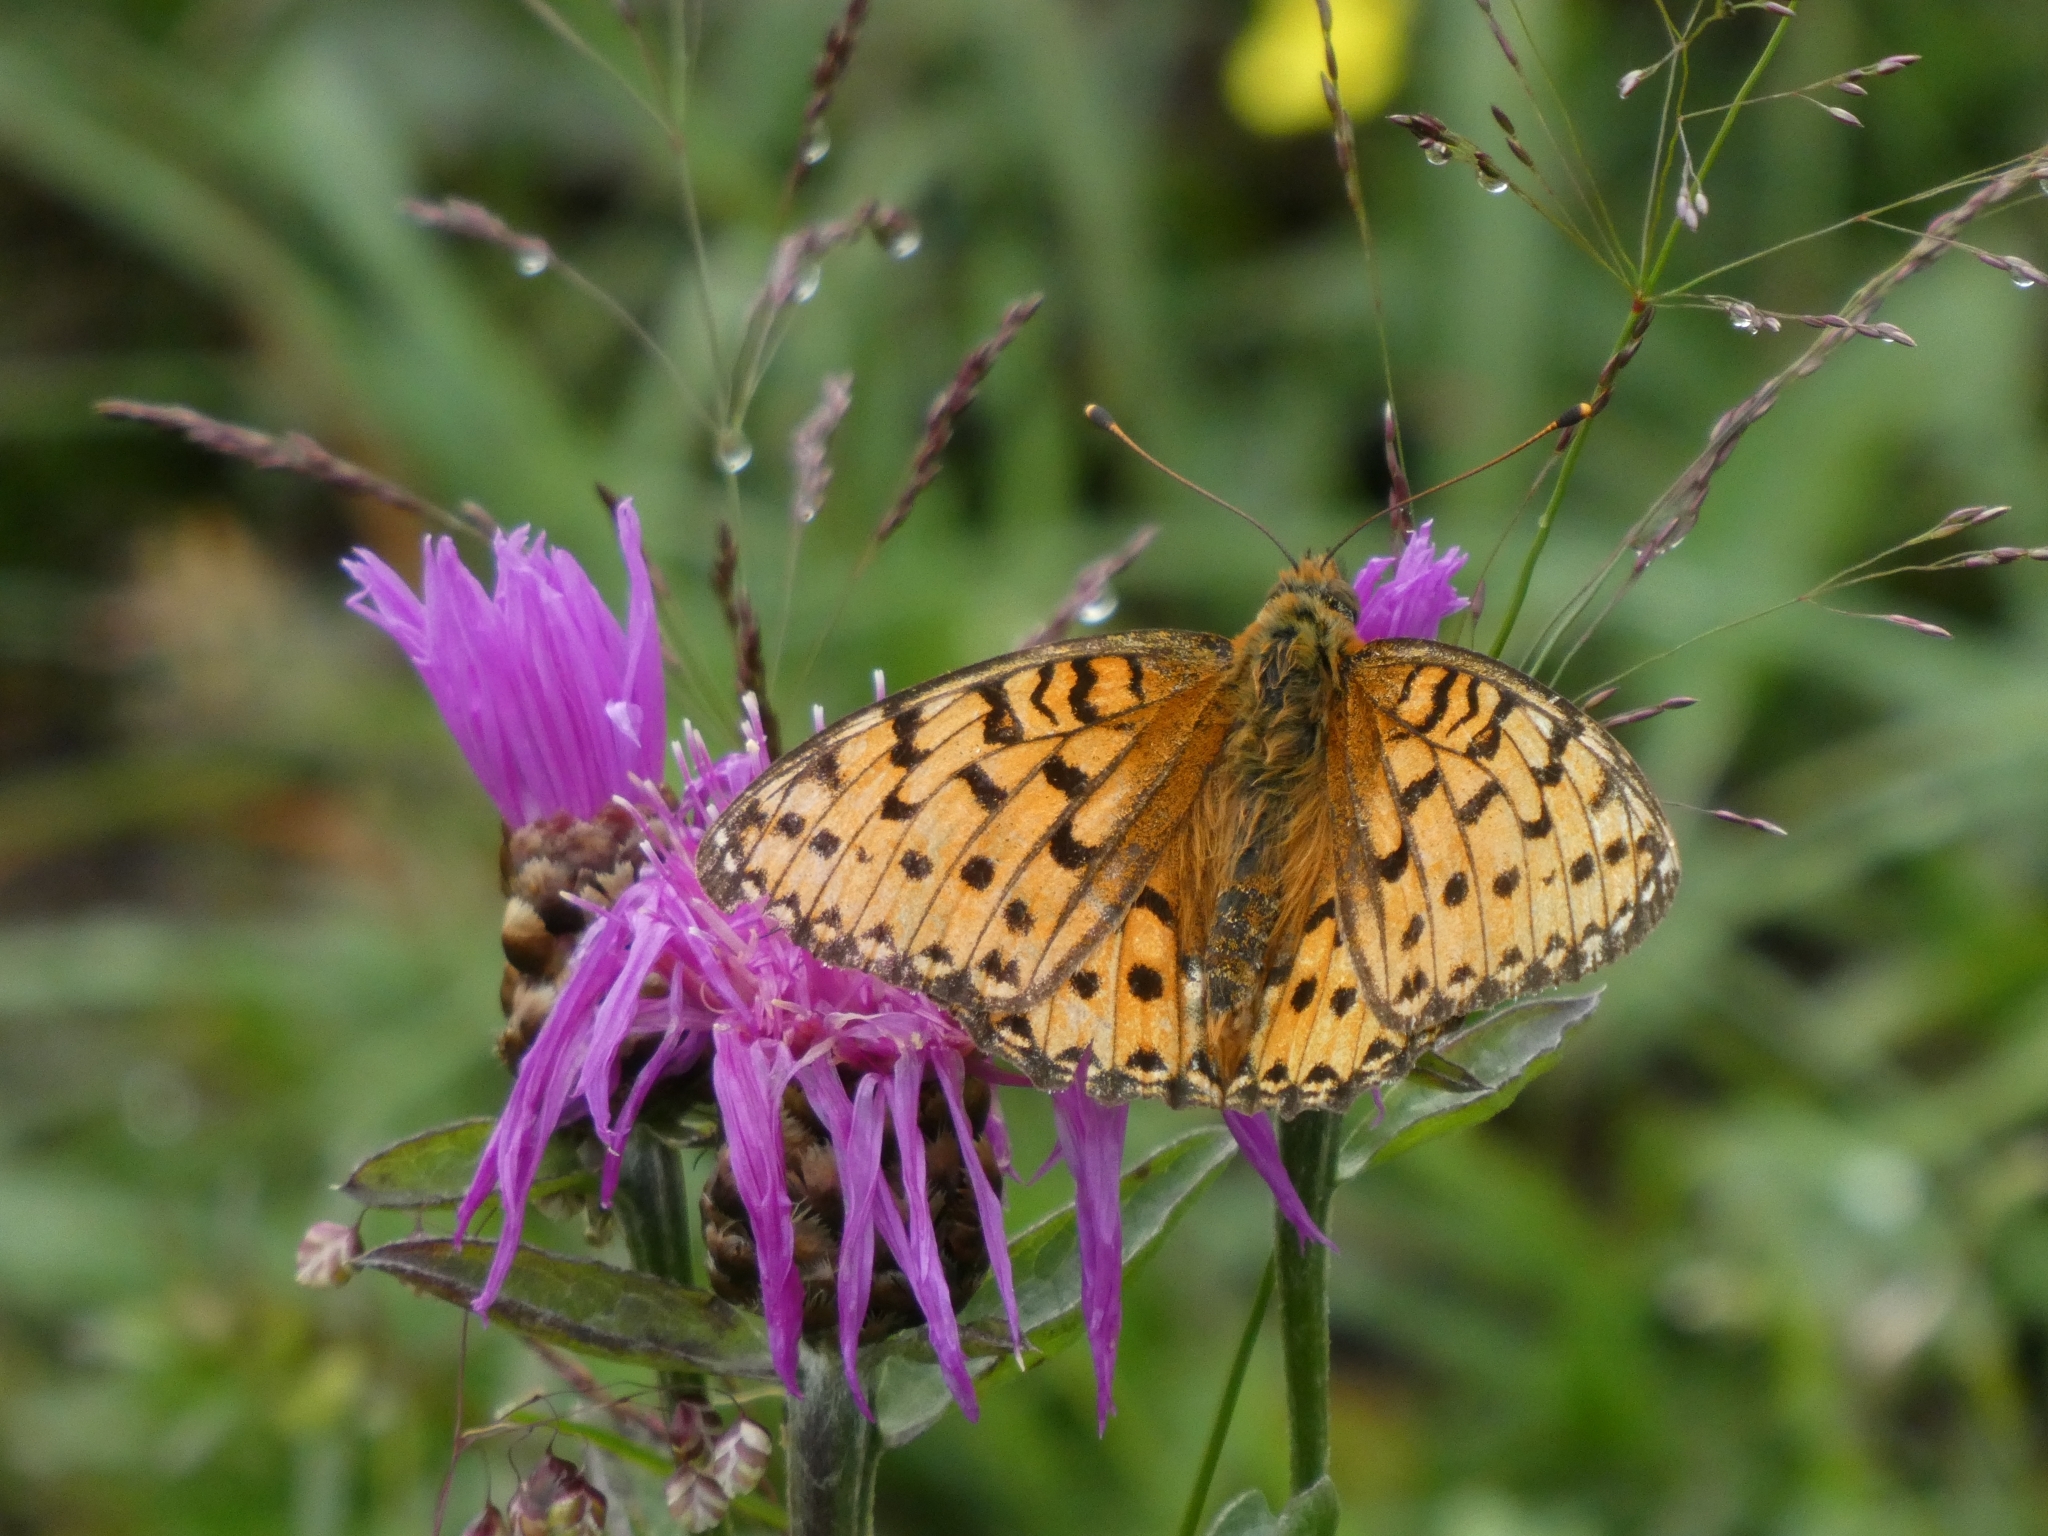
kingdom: Animalia
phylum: Arthropoda
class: Insecta
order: Lepidoptera
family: Nymphalidae
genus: Speyeria
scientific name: Speyeria aglaja
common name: Dark green fritillary
